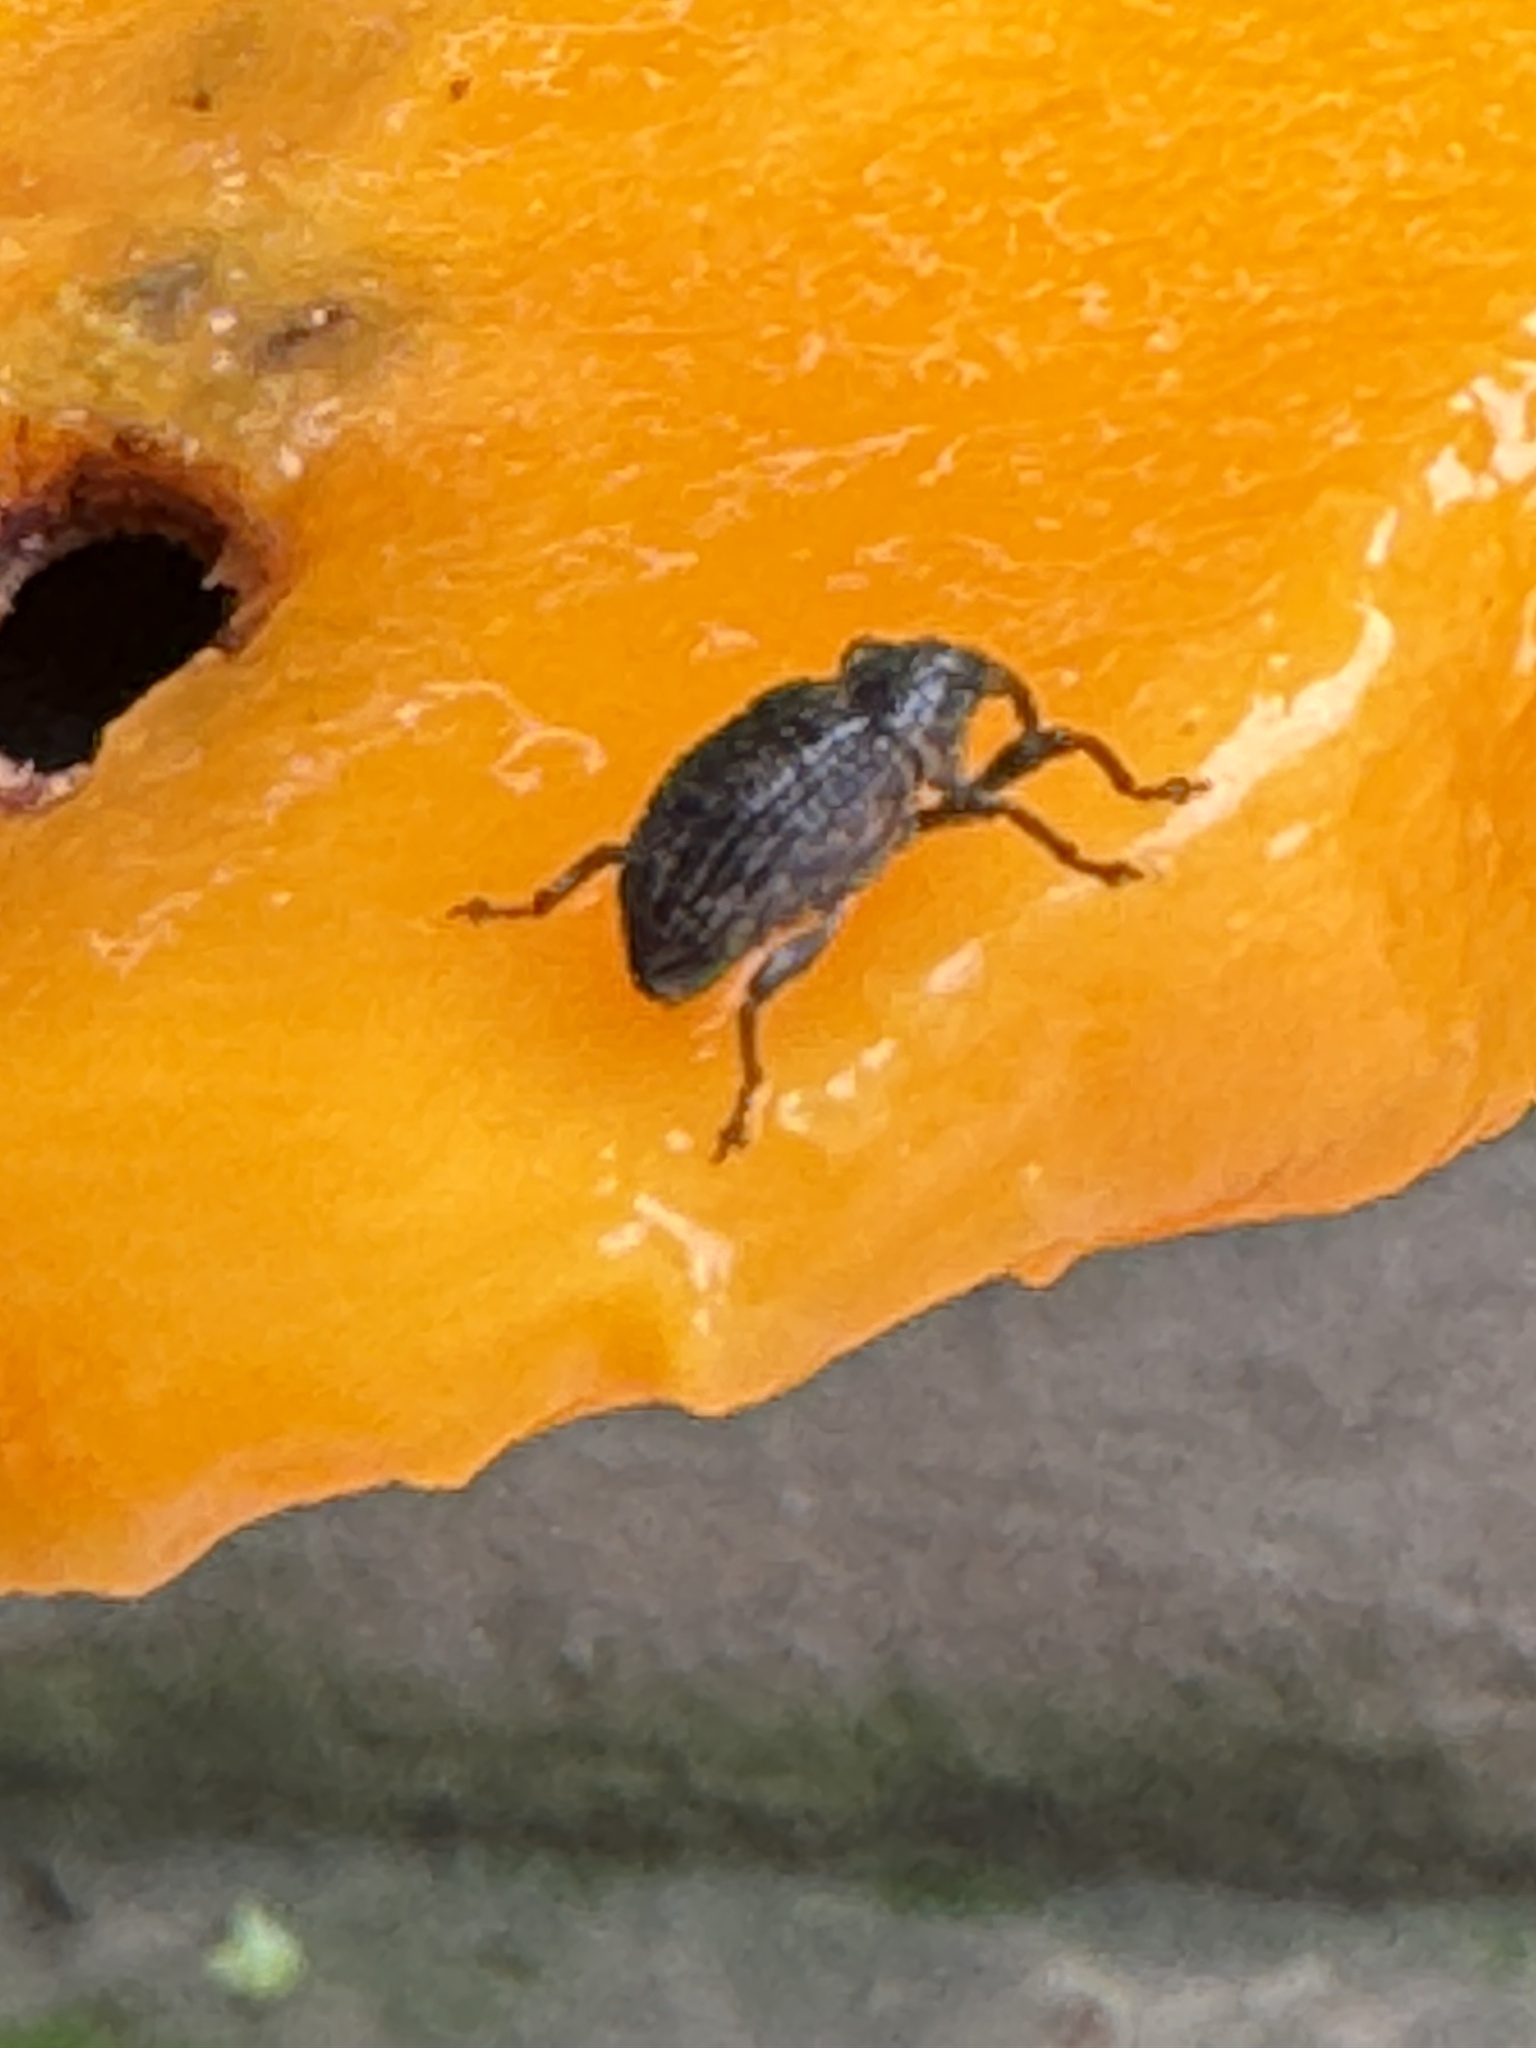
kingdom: Animalia
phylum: Arthropoda
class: Insecta
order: Coleoptera
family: Curculionidae
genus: Sternochetus
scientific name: Sternochetus mangiferae
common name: Mango seed weevil
